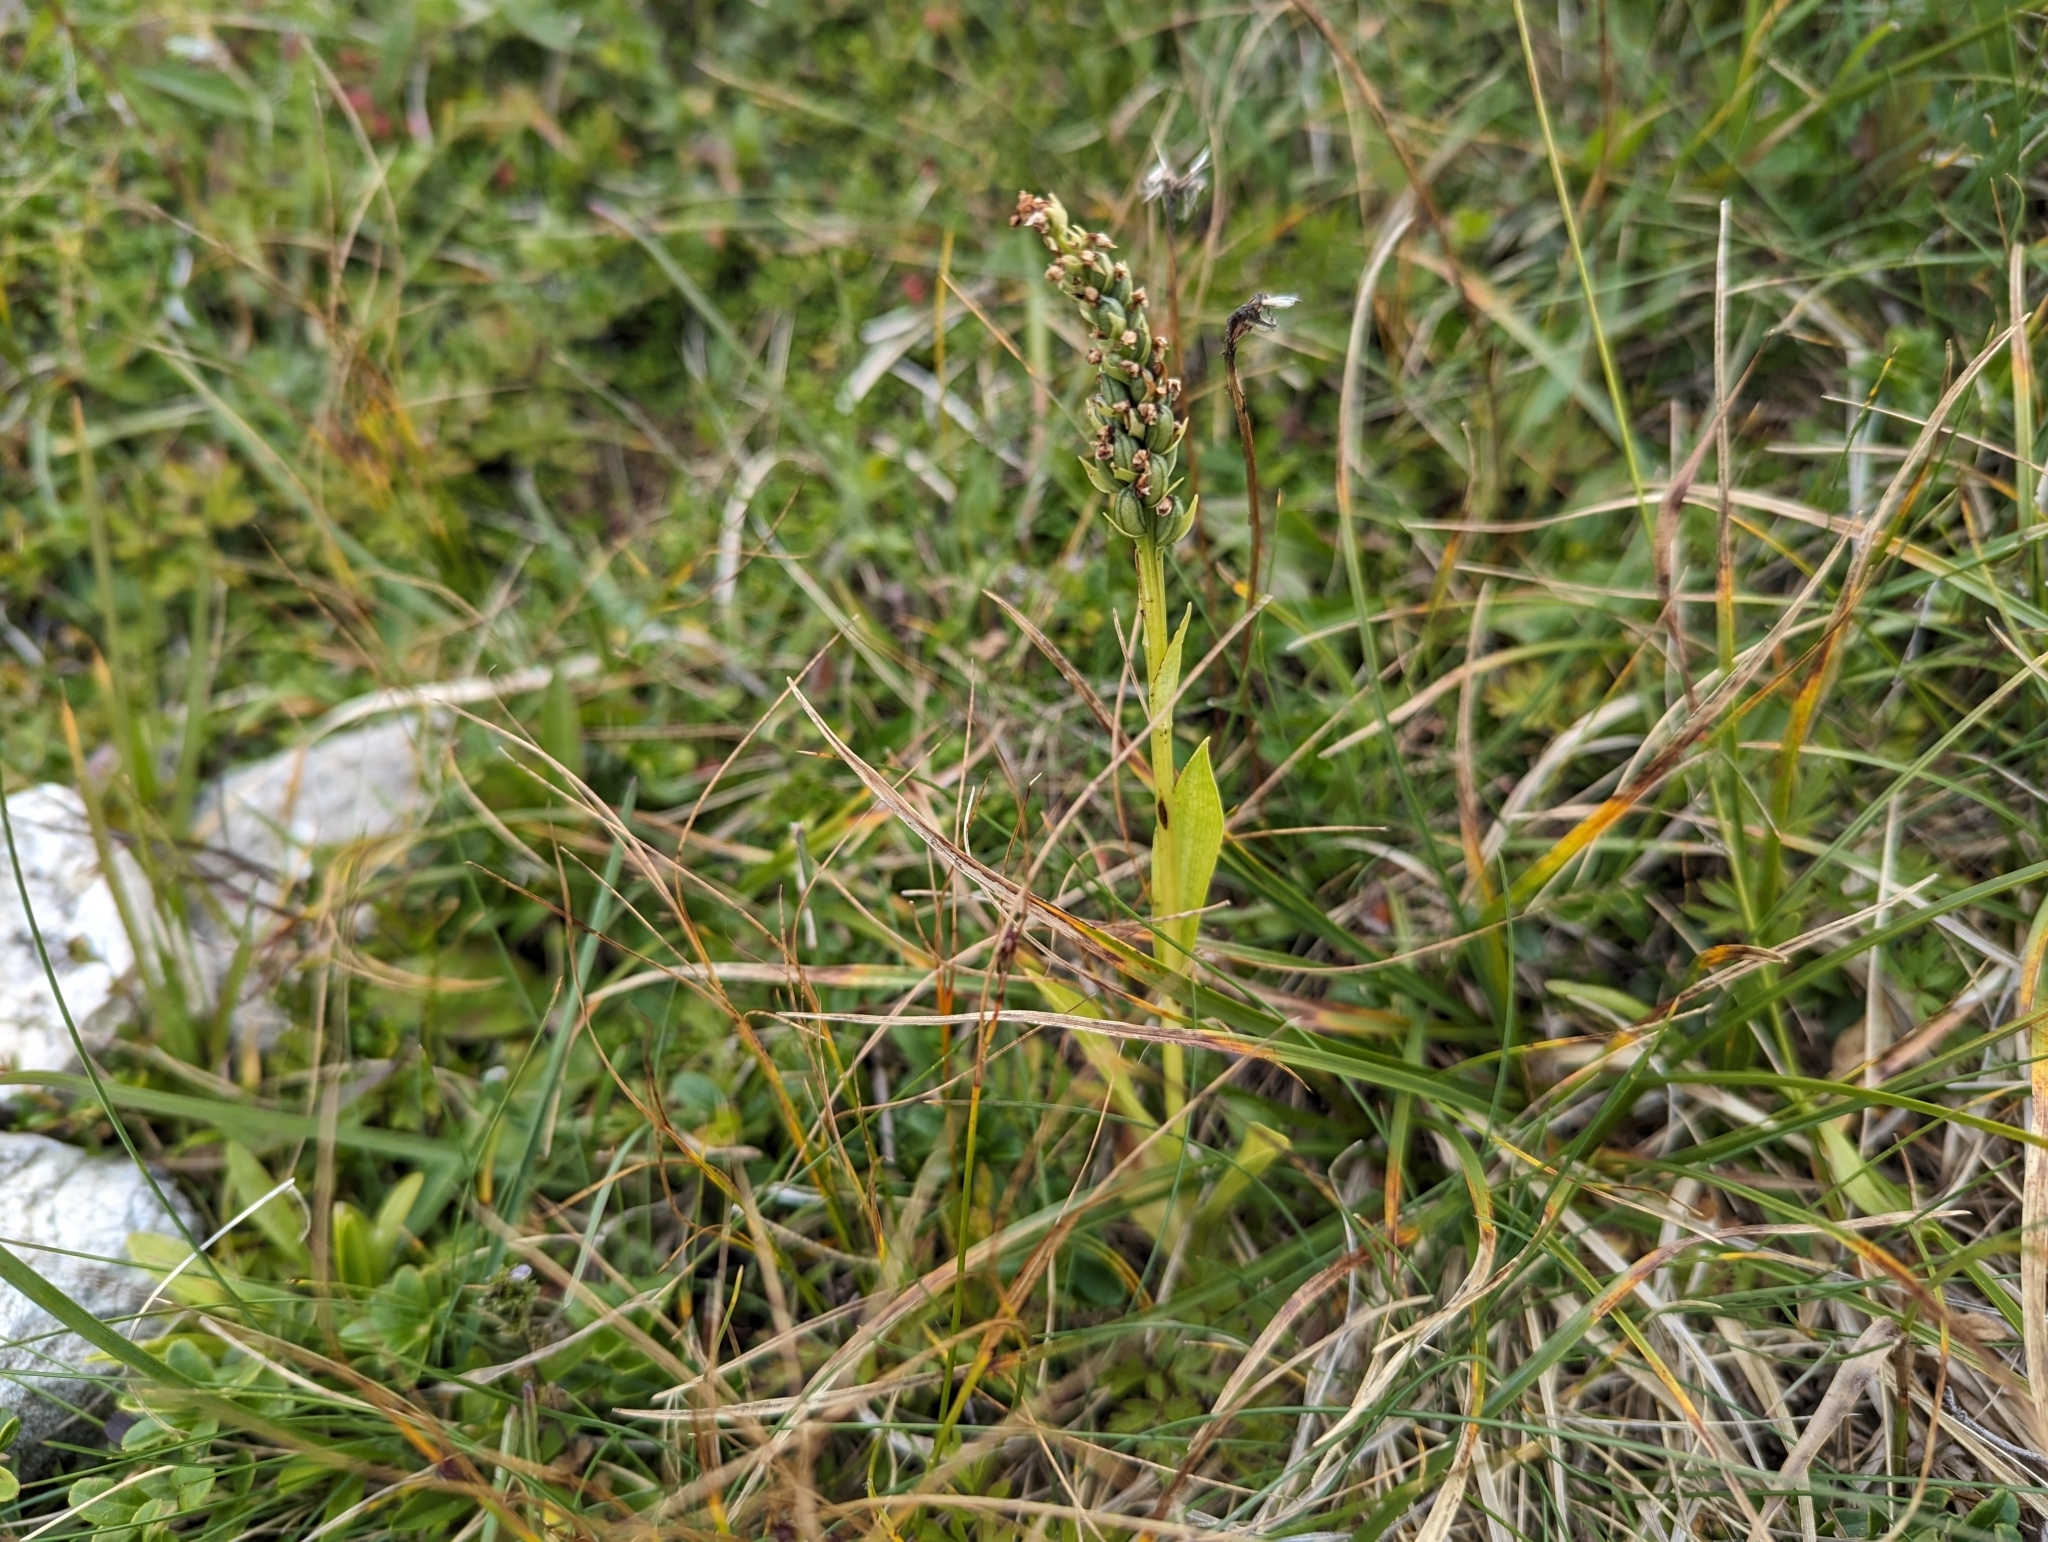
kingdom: Plantae
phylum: Tracheophyta
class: Liliopsida
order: Asparagales
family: Orchidaceae
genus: Pseudorchis
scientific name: Pseudorchis albida
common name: Small-white orchid
